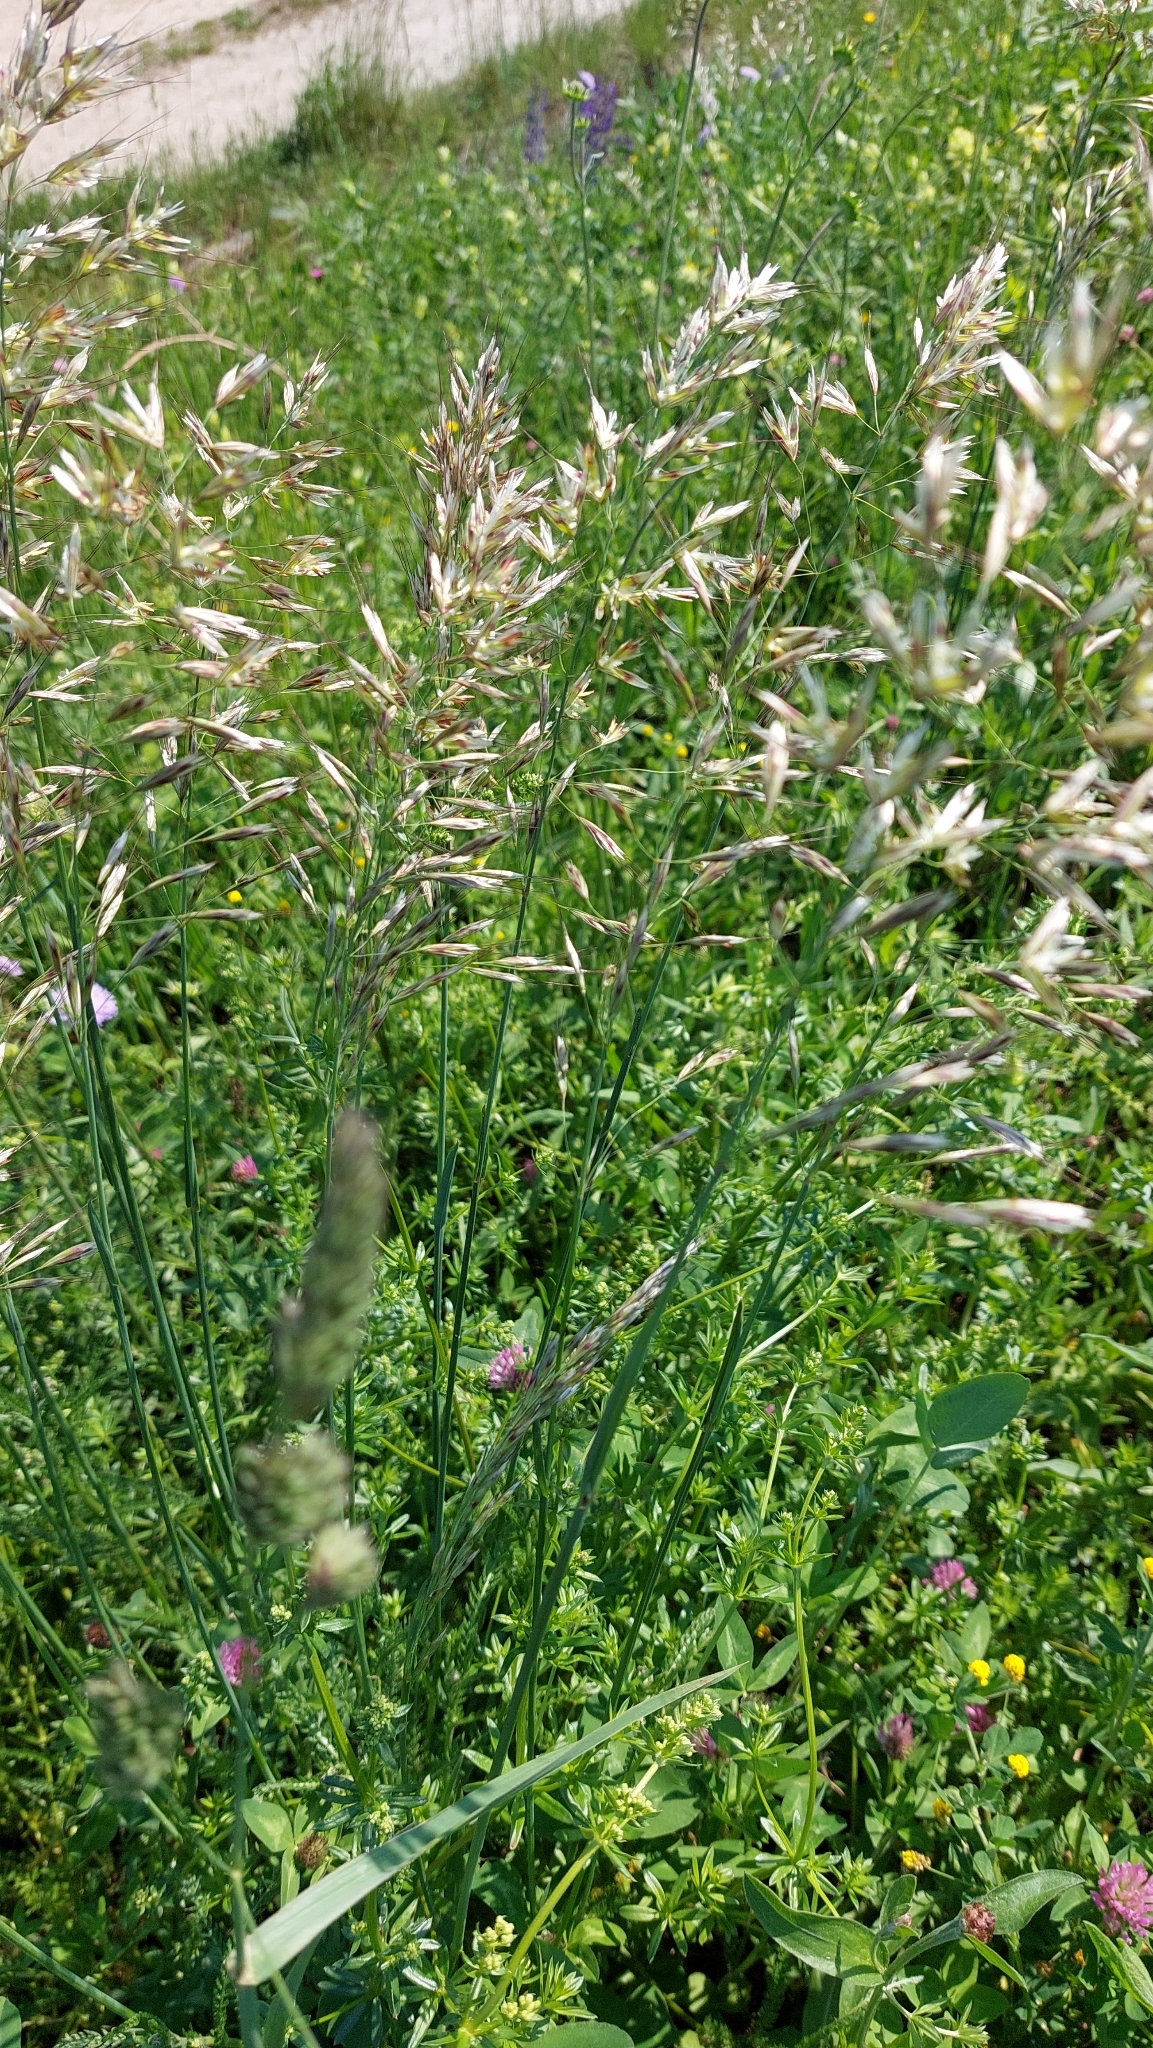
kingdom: Plantae
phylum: Tracheophyta
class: Liliopsida
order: Poales
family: Poaceae
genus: Avenula
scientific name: Avenula pubescens
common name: Downy alpine oatgrass
